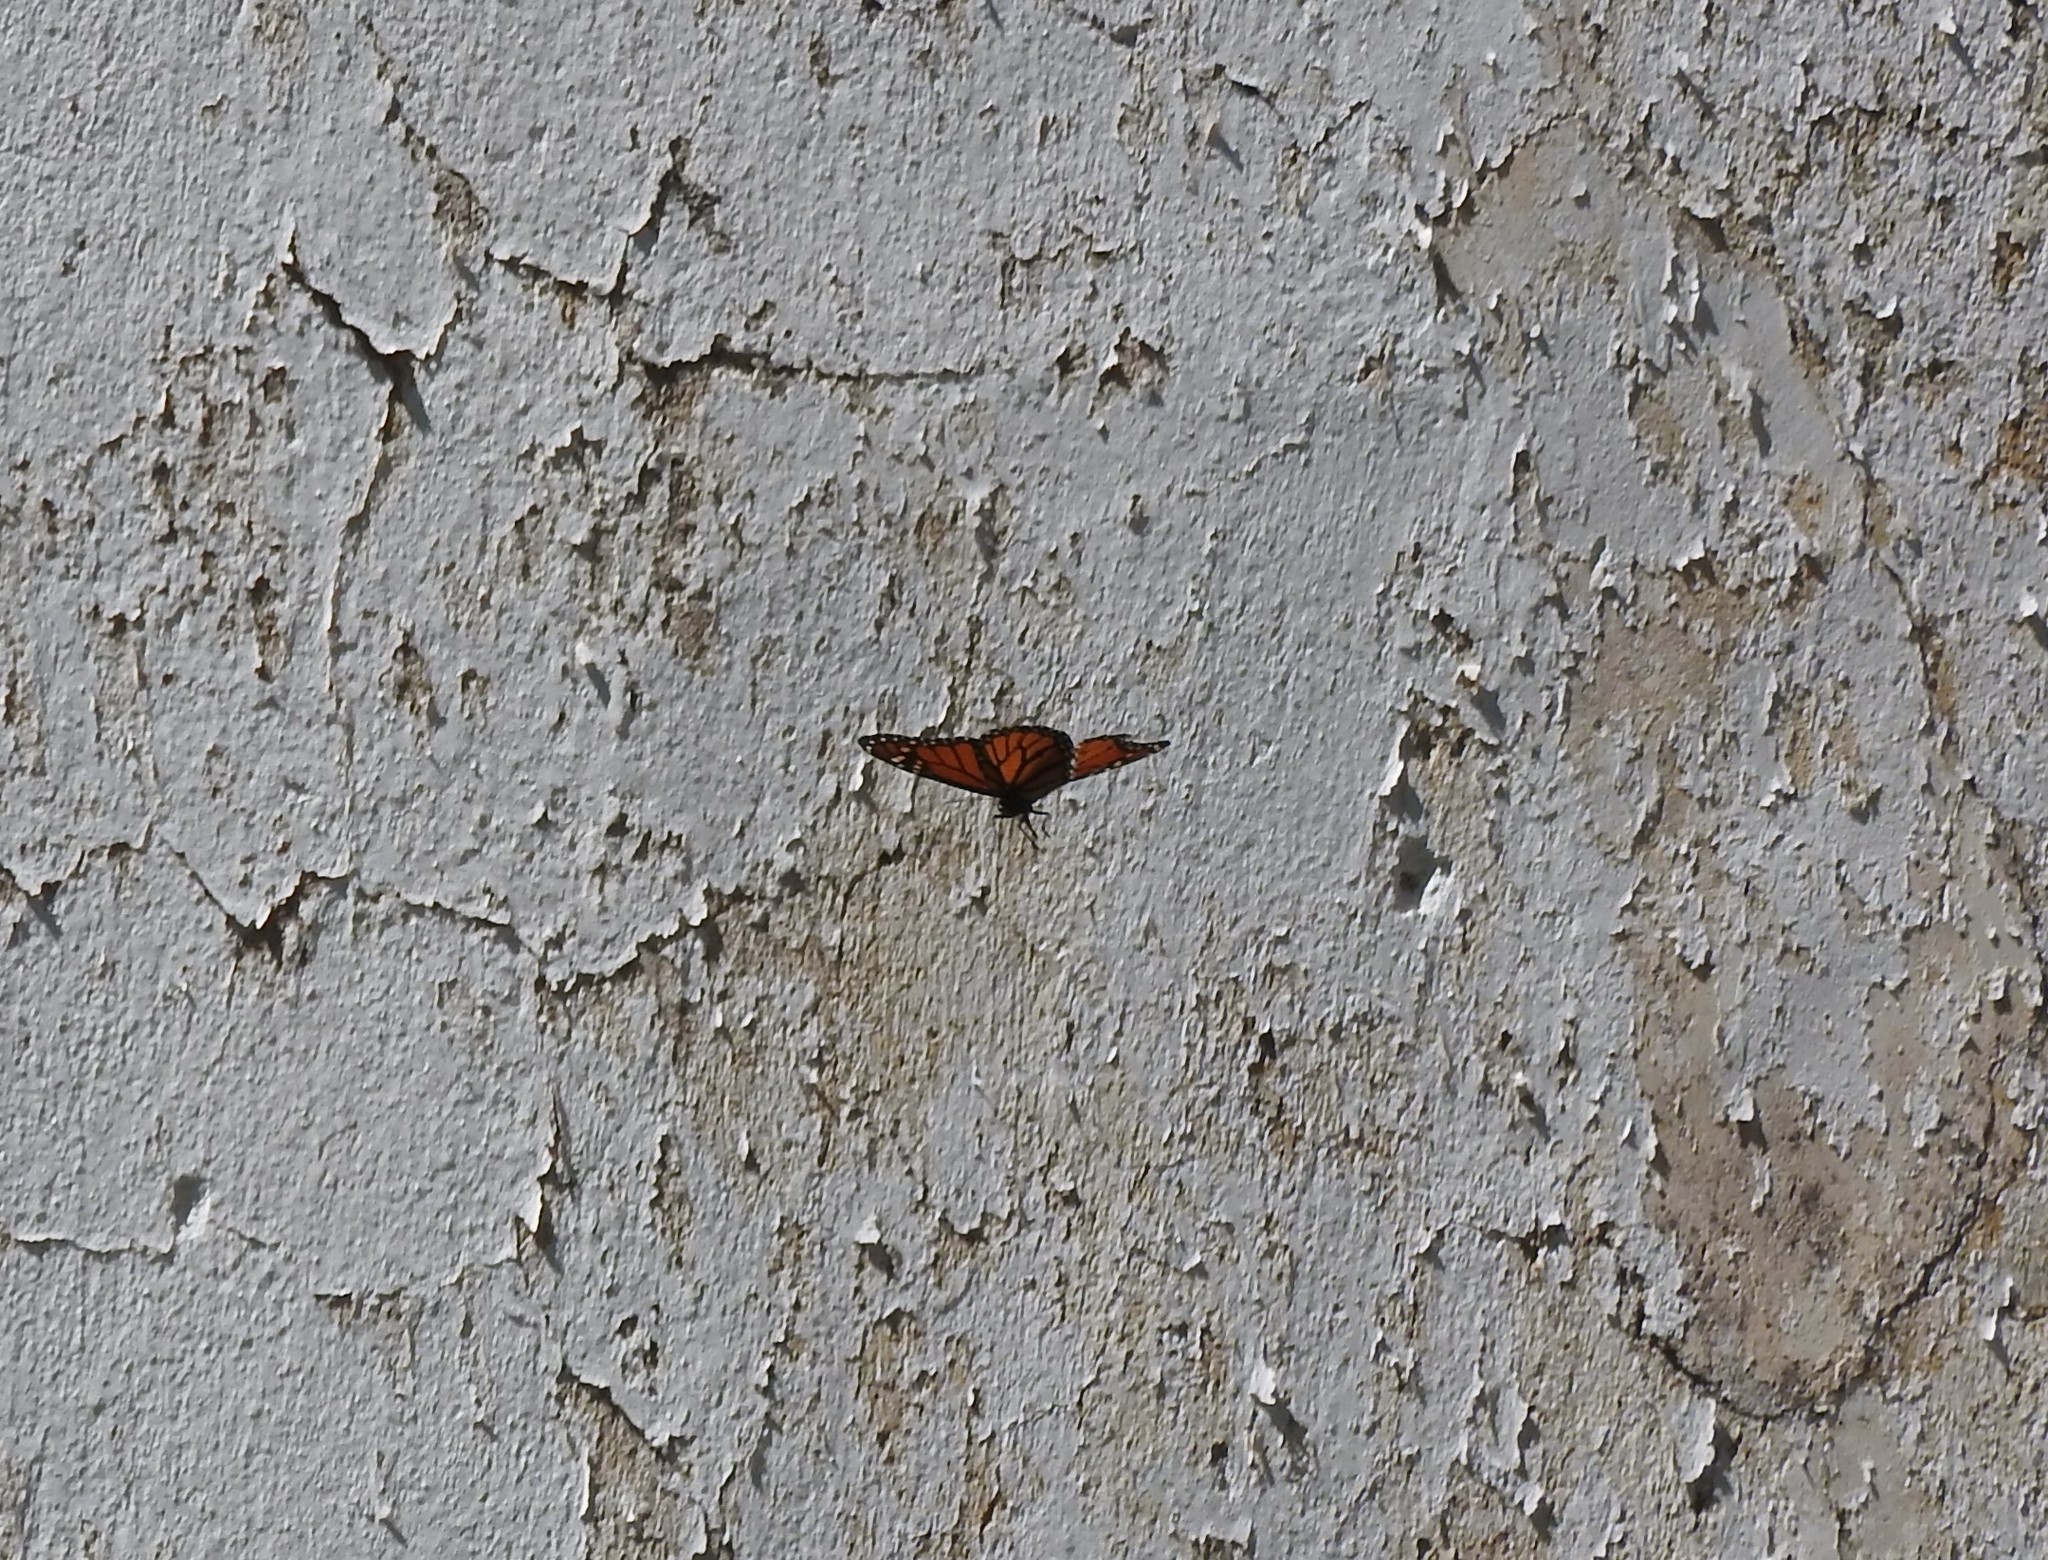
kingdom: Animalia
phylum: Arthropoda
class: Insecta
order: Lepidoptera
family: Nymphalidae
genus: Danaus
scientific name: Danaus plexippus
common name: Monarch
